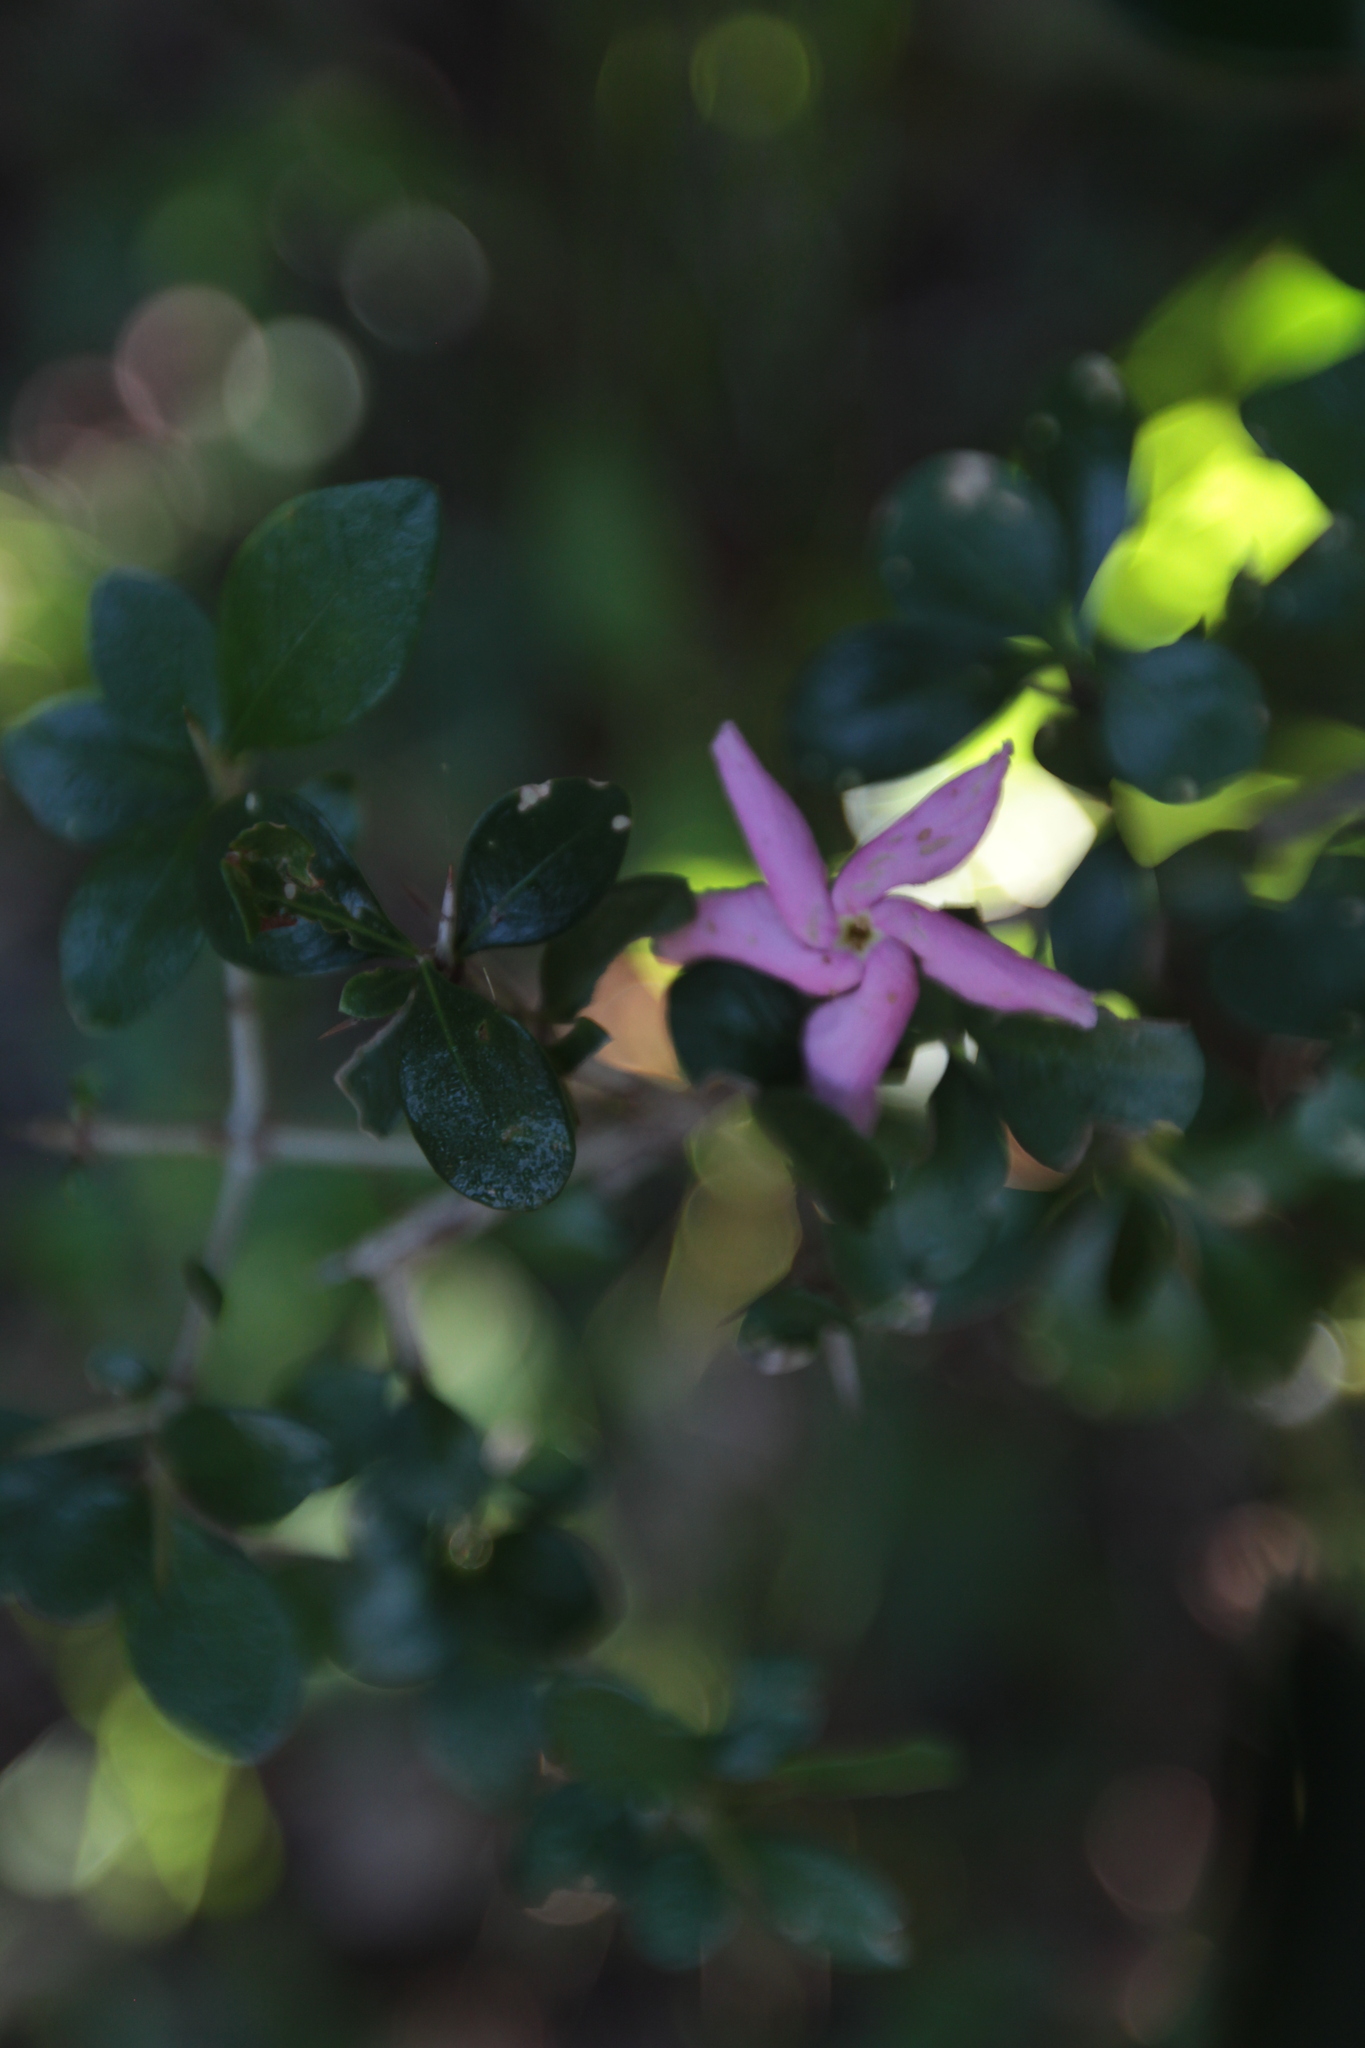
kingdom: Plantae
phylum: Tracheophyta
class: Magnoliopsida
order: Gentianales
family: Apocynaceae
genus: Mesechites
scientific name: Mesechites citrifolius
